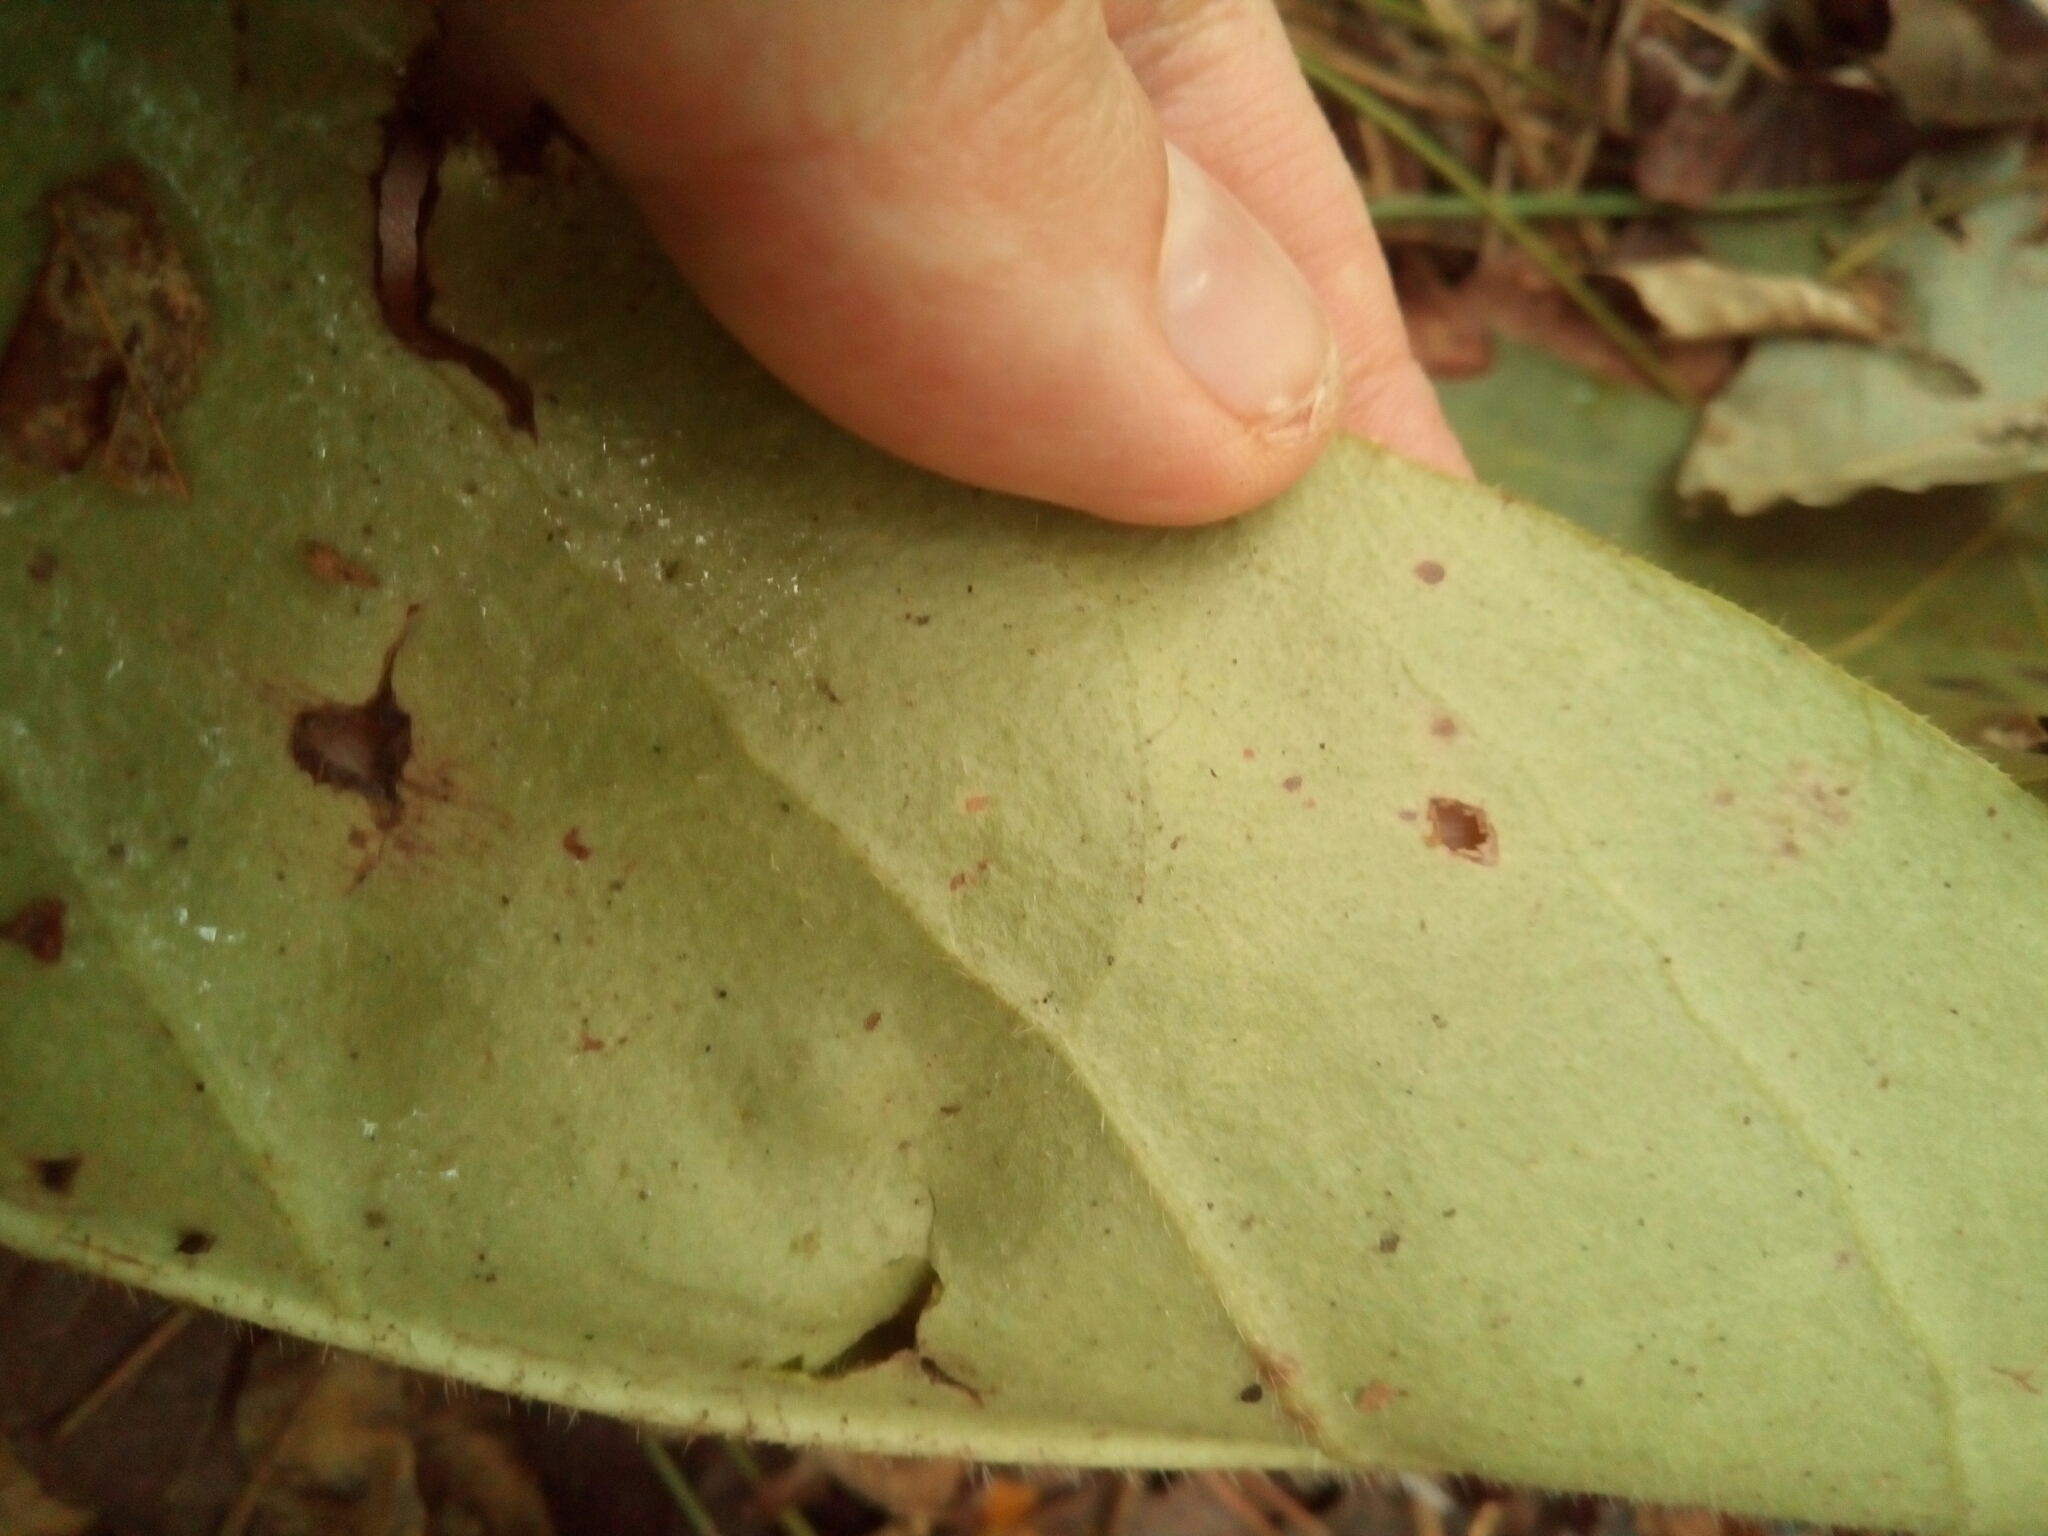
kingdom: Plantae
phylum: Tracheophyta
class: Magnoliopsida
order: Boraginales
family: Boraginaceae
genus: Andersonglossum
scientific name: Andersonglossum virginianum
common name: Wild comfrey
